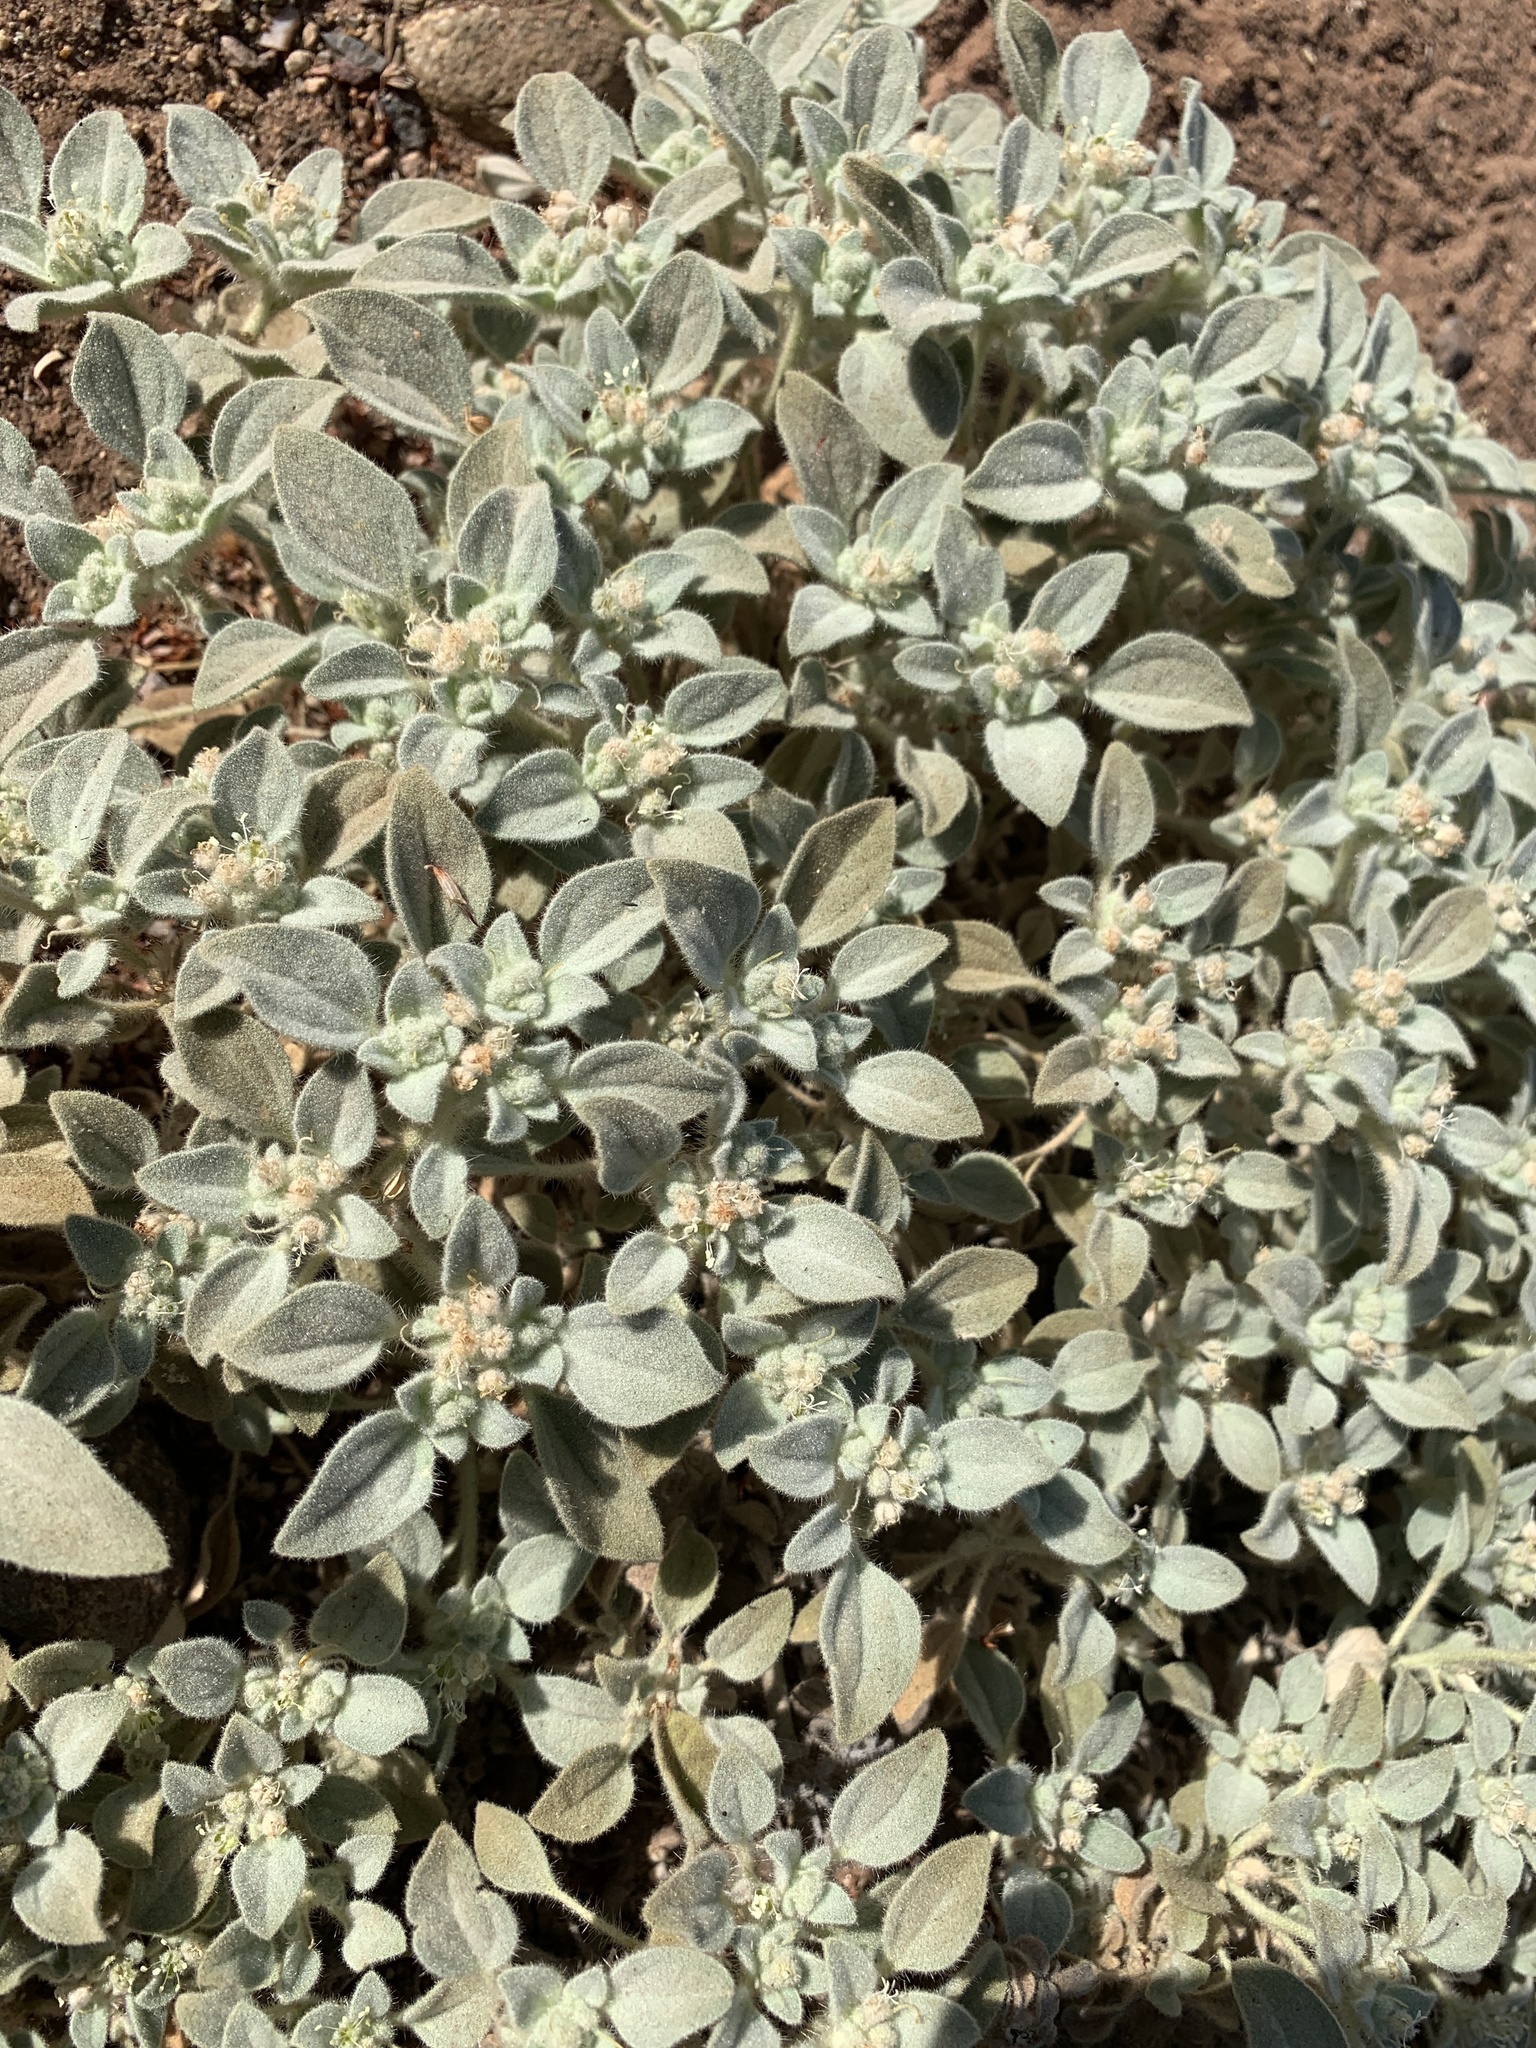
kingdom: Plantae
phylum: Tracheophyta
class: Magnoliopsida
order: Malpighiales
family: Euphorbiaceae
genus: Croton
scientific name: Croton setiger
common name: Dove weed
